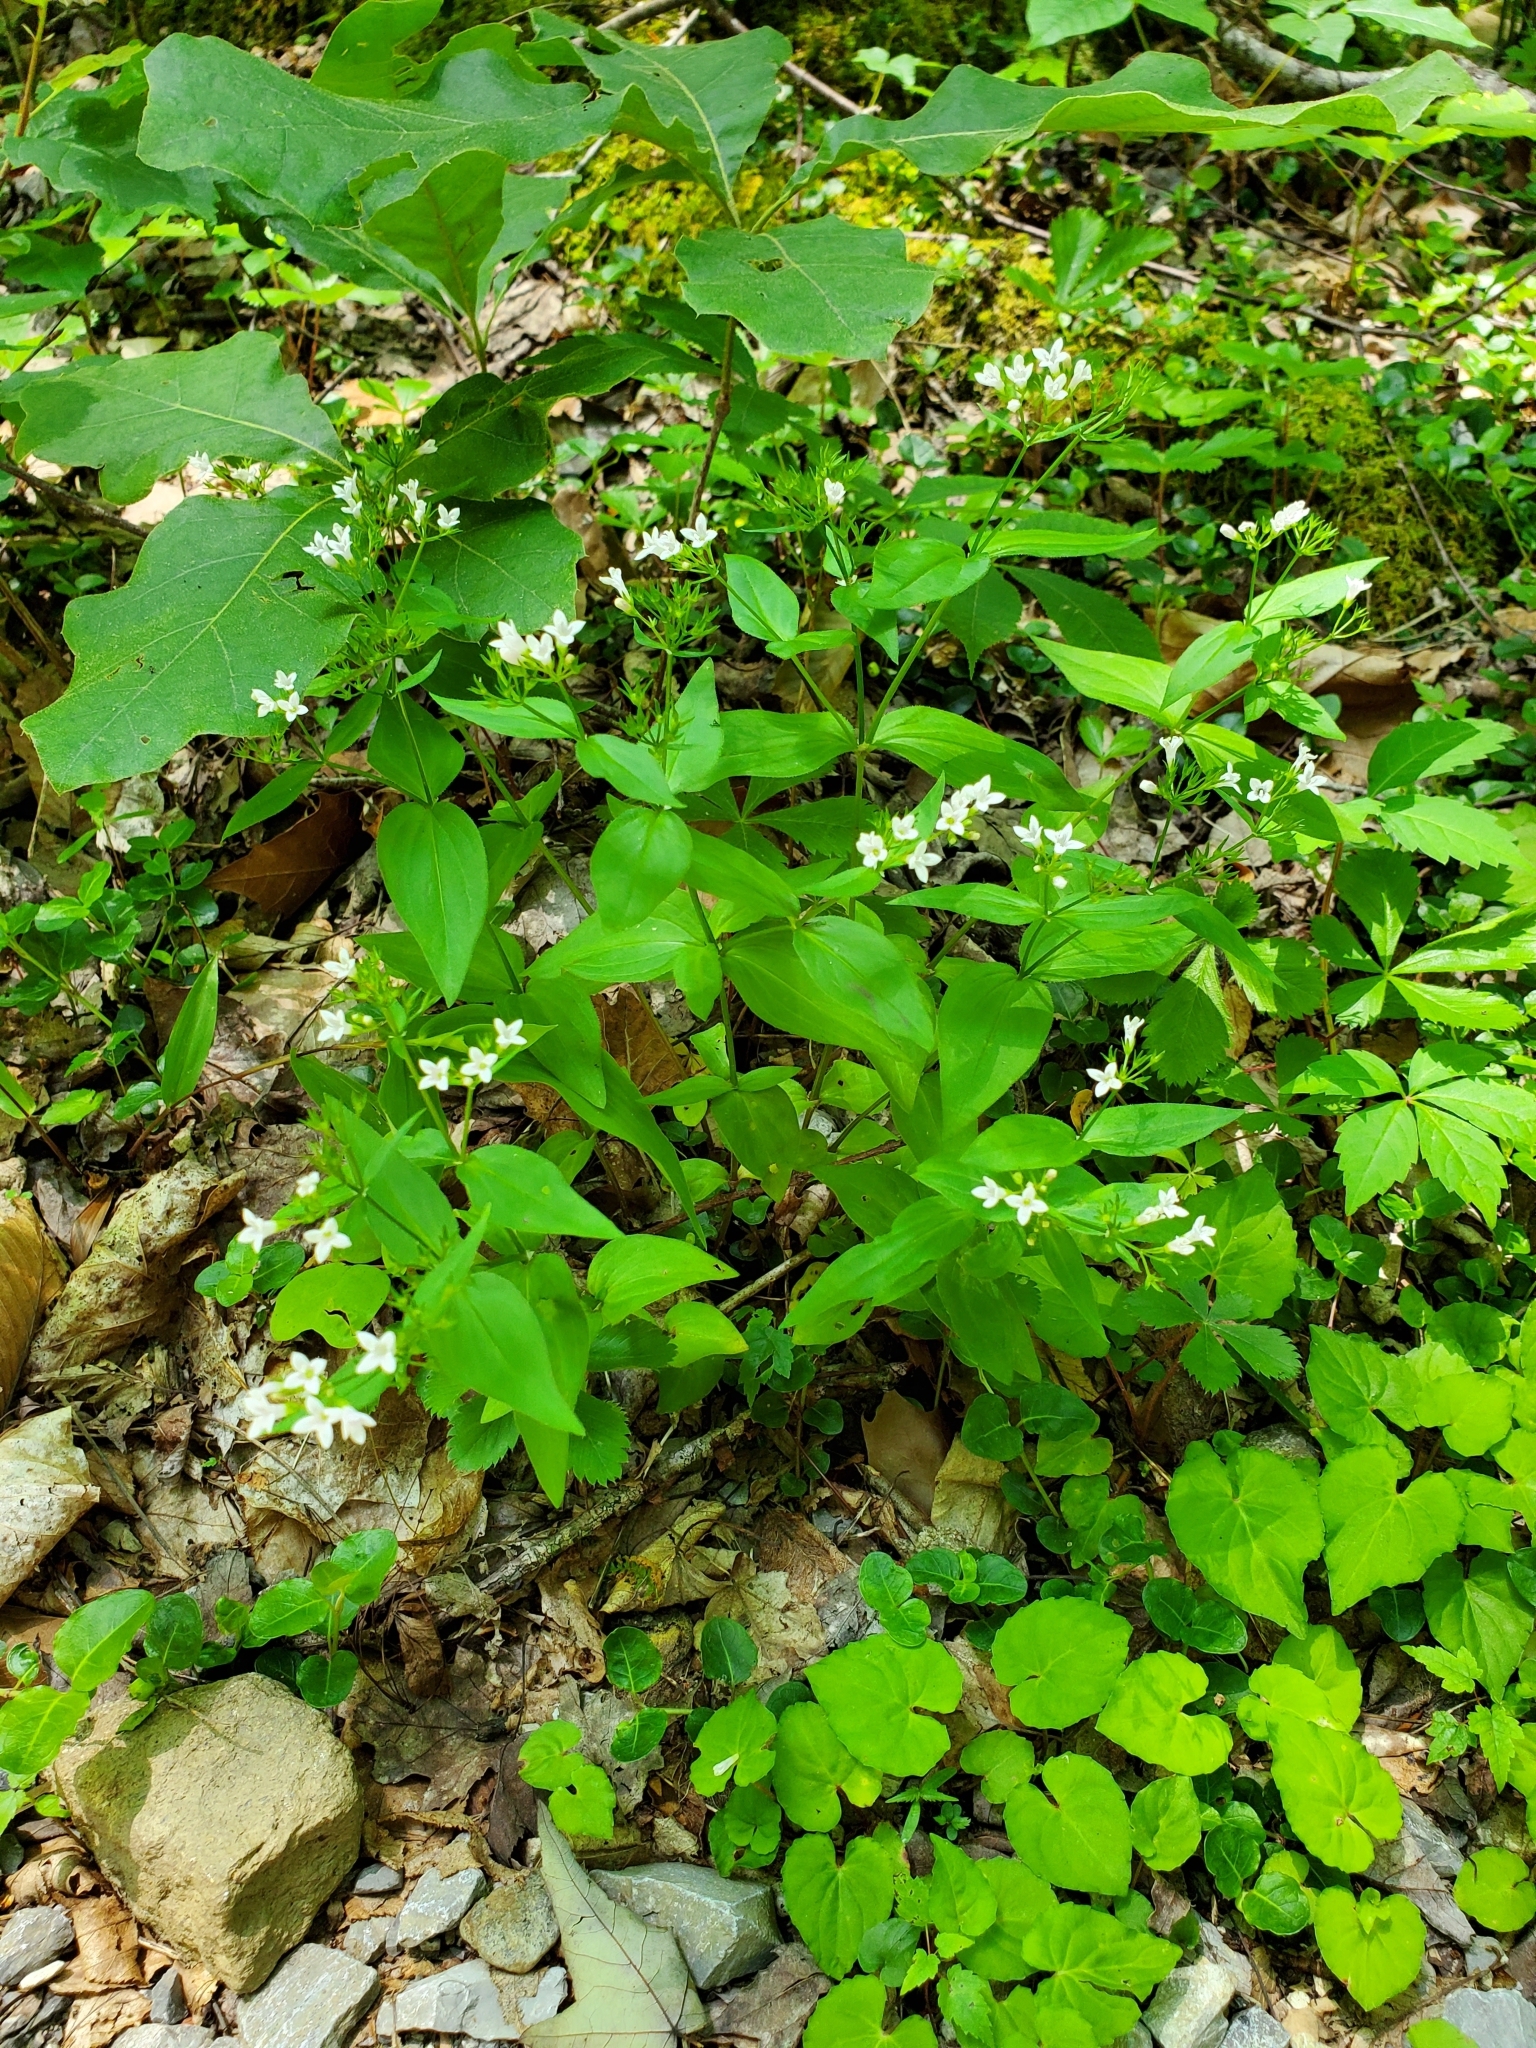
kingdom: Plantae
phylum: Tracheophyta
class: Magnoliopsida
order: Gentianales
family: Rubiaceae
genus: Houstonia
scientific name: Houstonia purpurea
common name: Summer bluet
